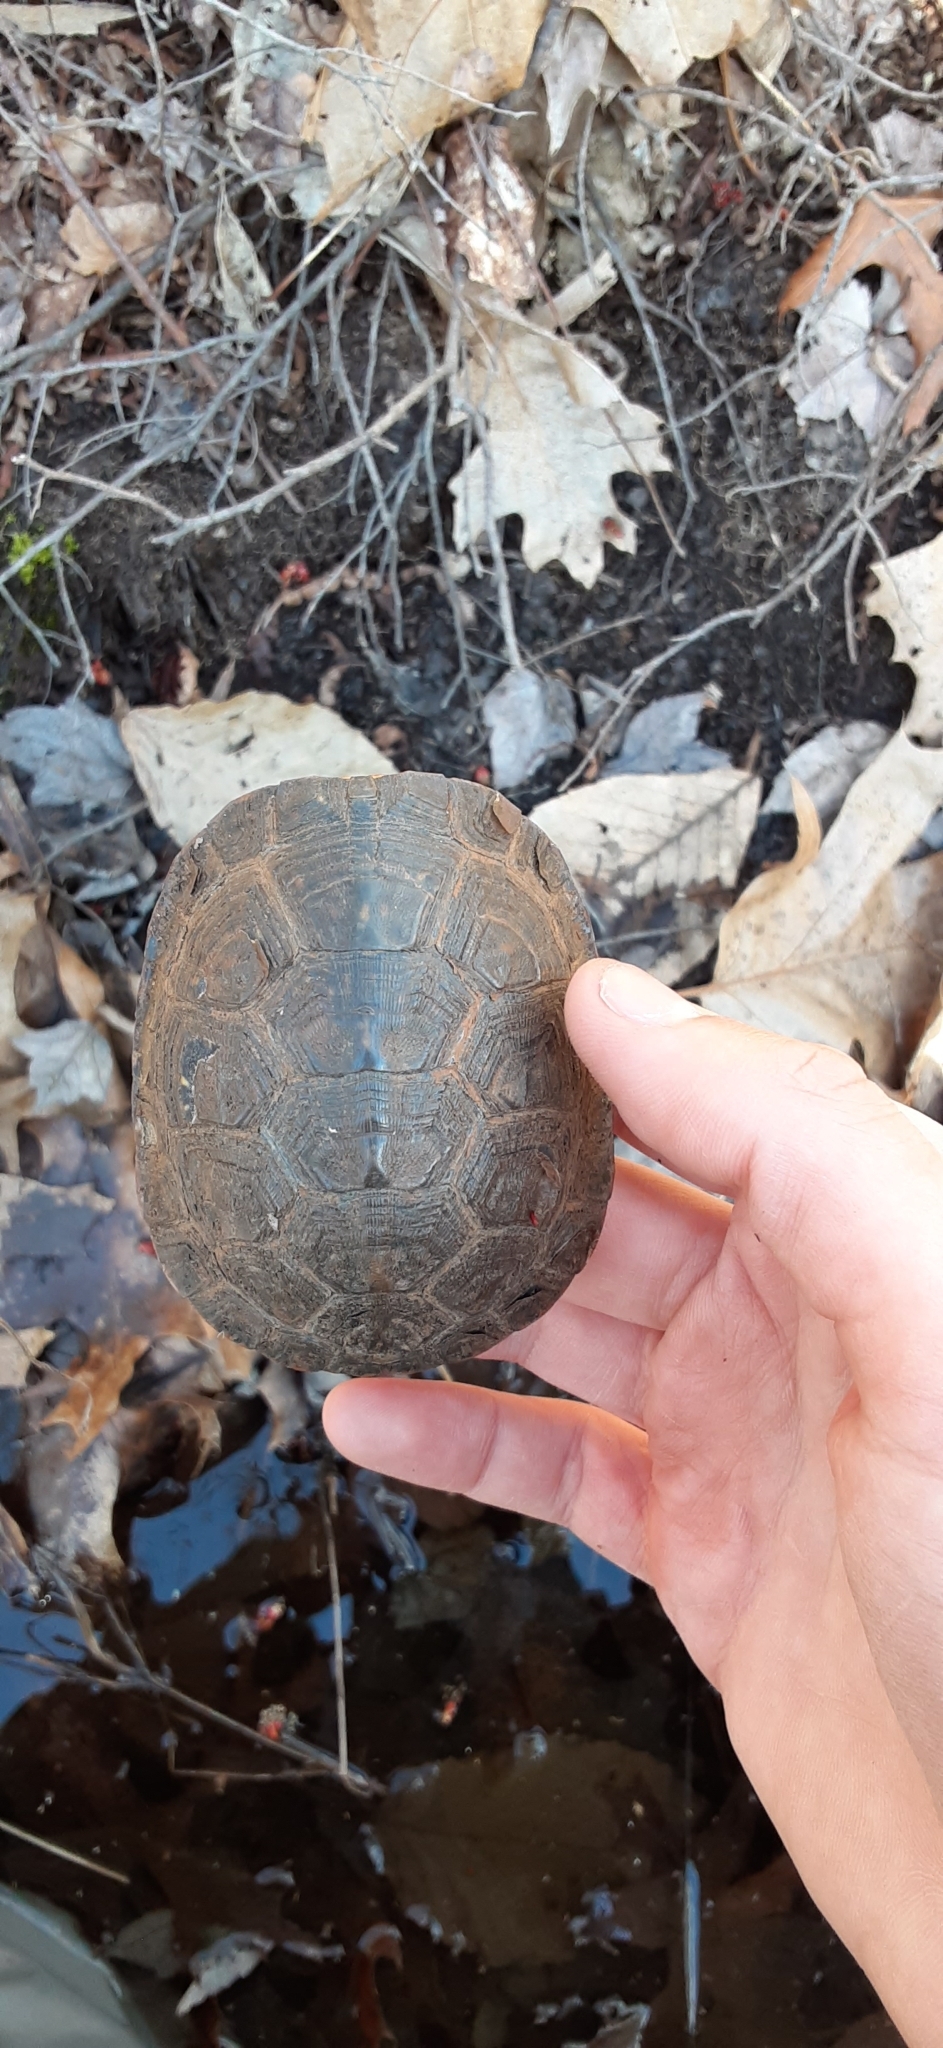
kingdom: Animalia
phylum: Chordata
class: Testudines
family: Emydidae
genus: Emys
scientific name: Emys blandingii
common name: Blanding's turtle
